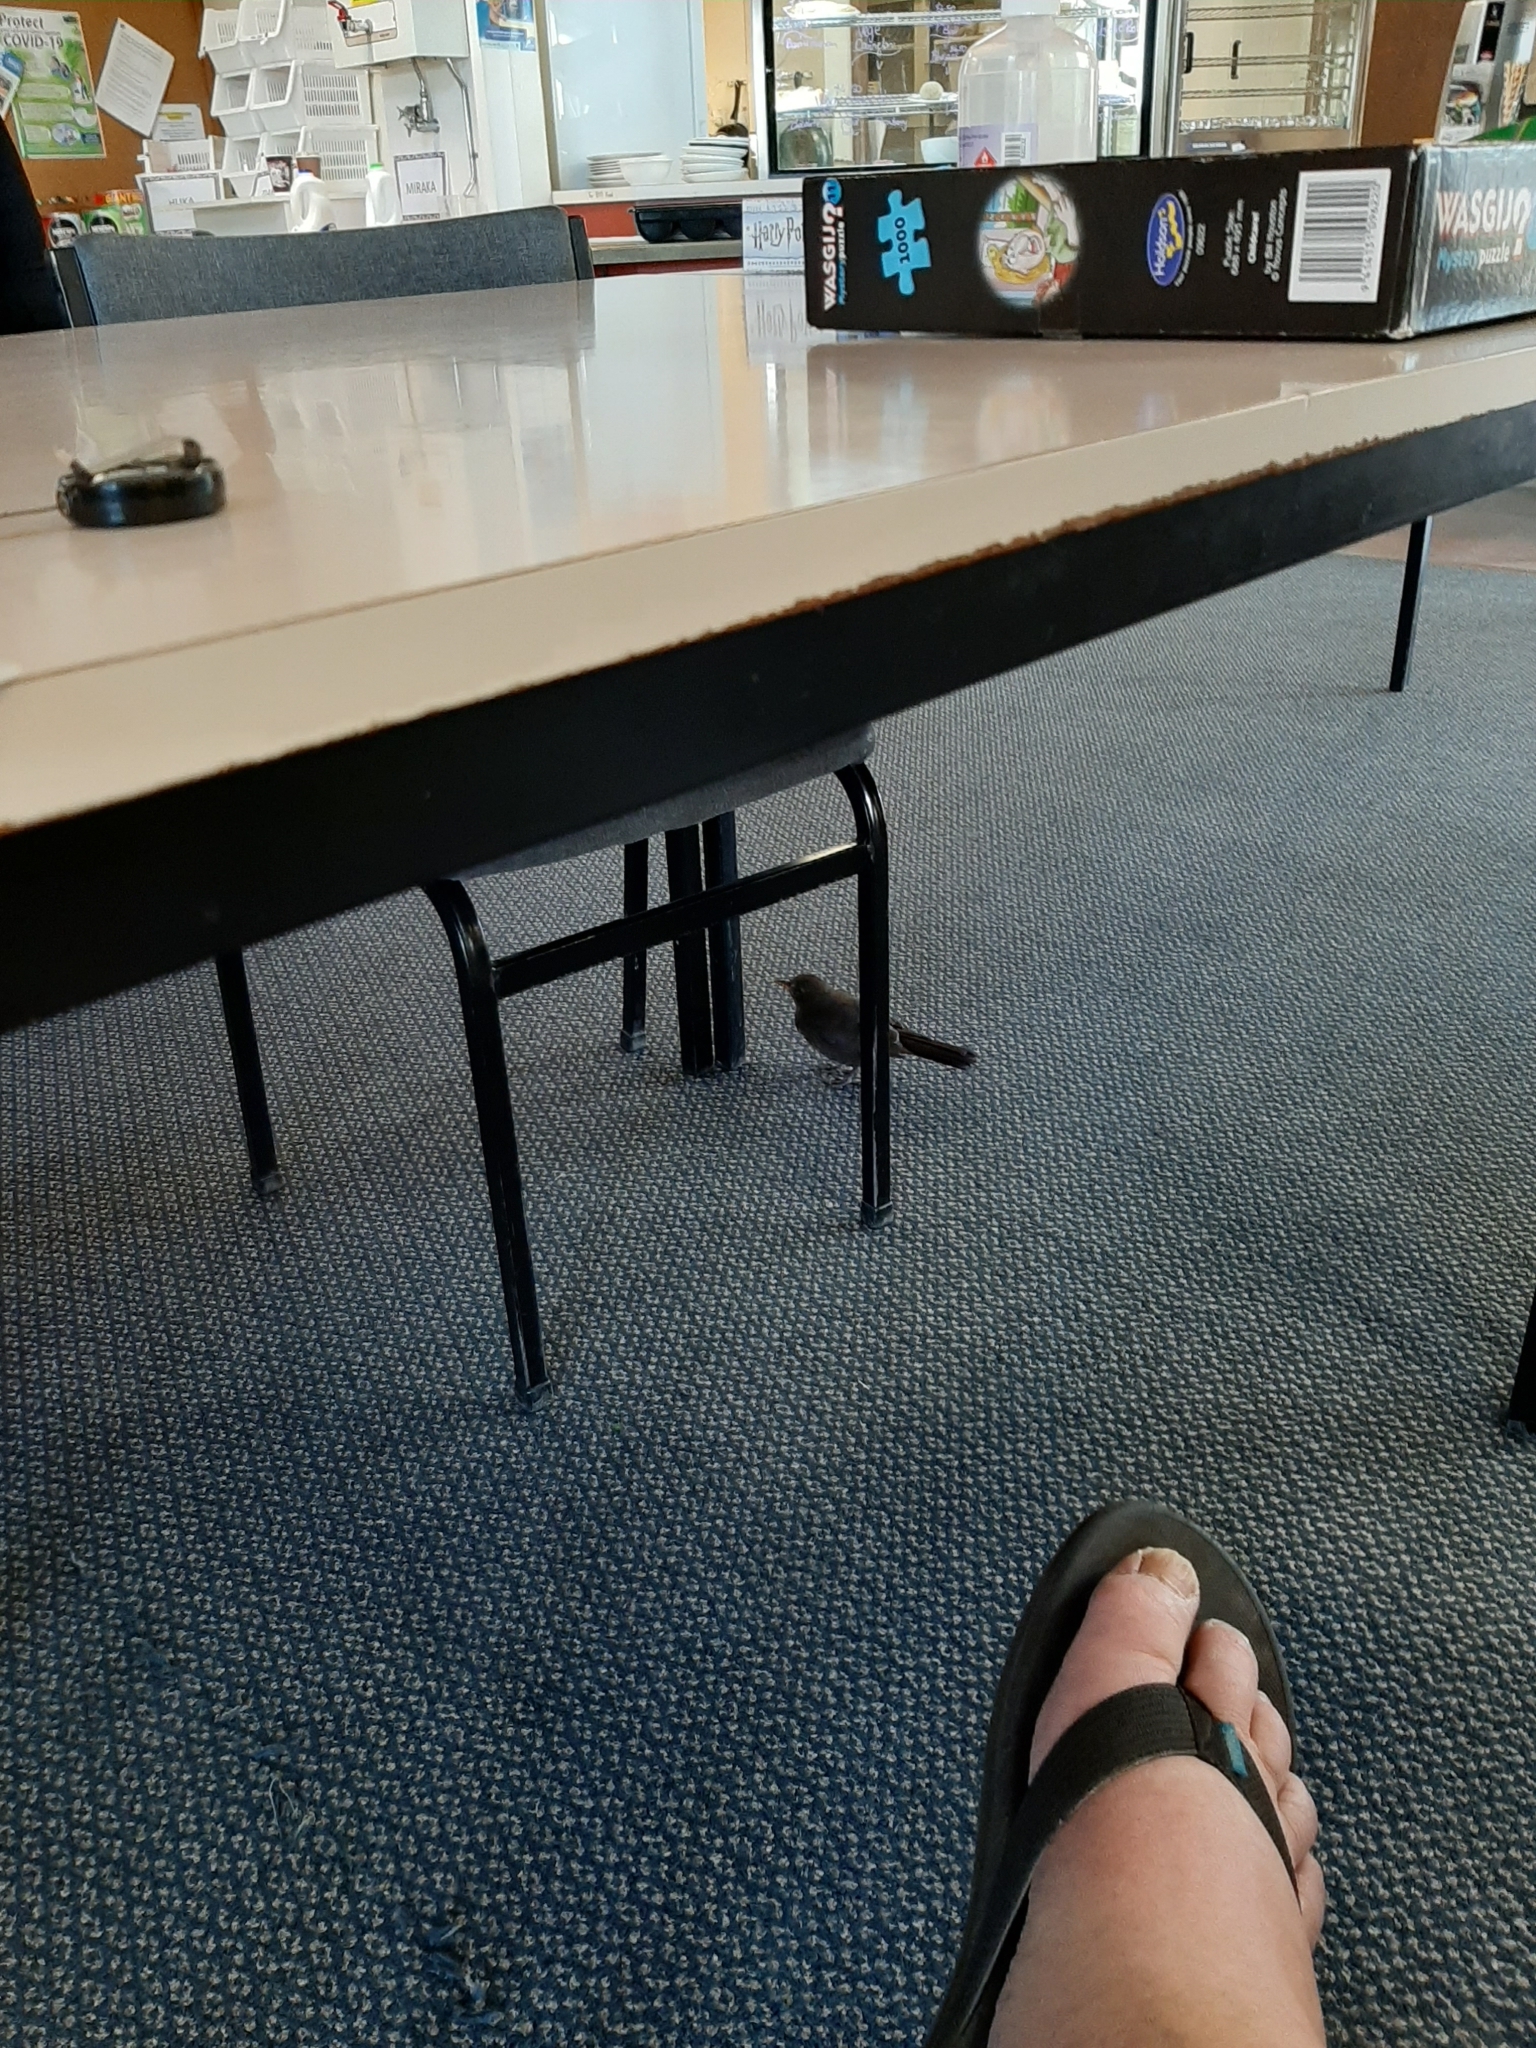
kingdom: Animalia
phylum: Chordata
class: Aves
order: Passeriformes
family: Turdidae
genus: Turdus
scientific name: Turdus merula
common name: Common blackbird
